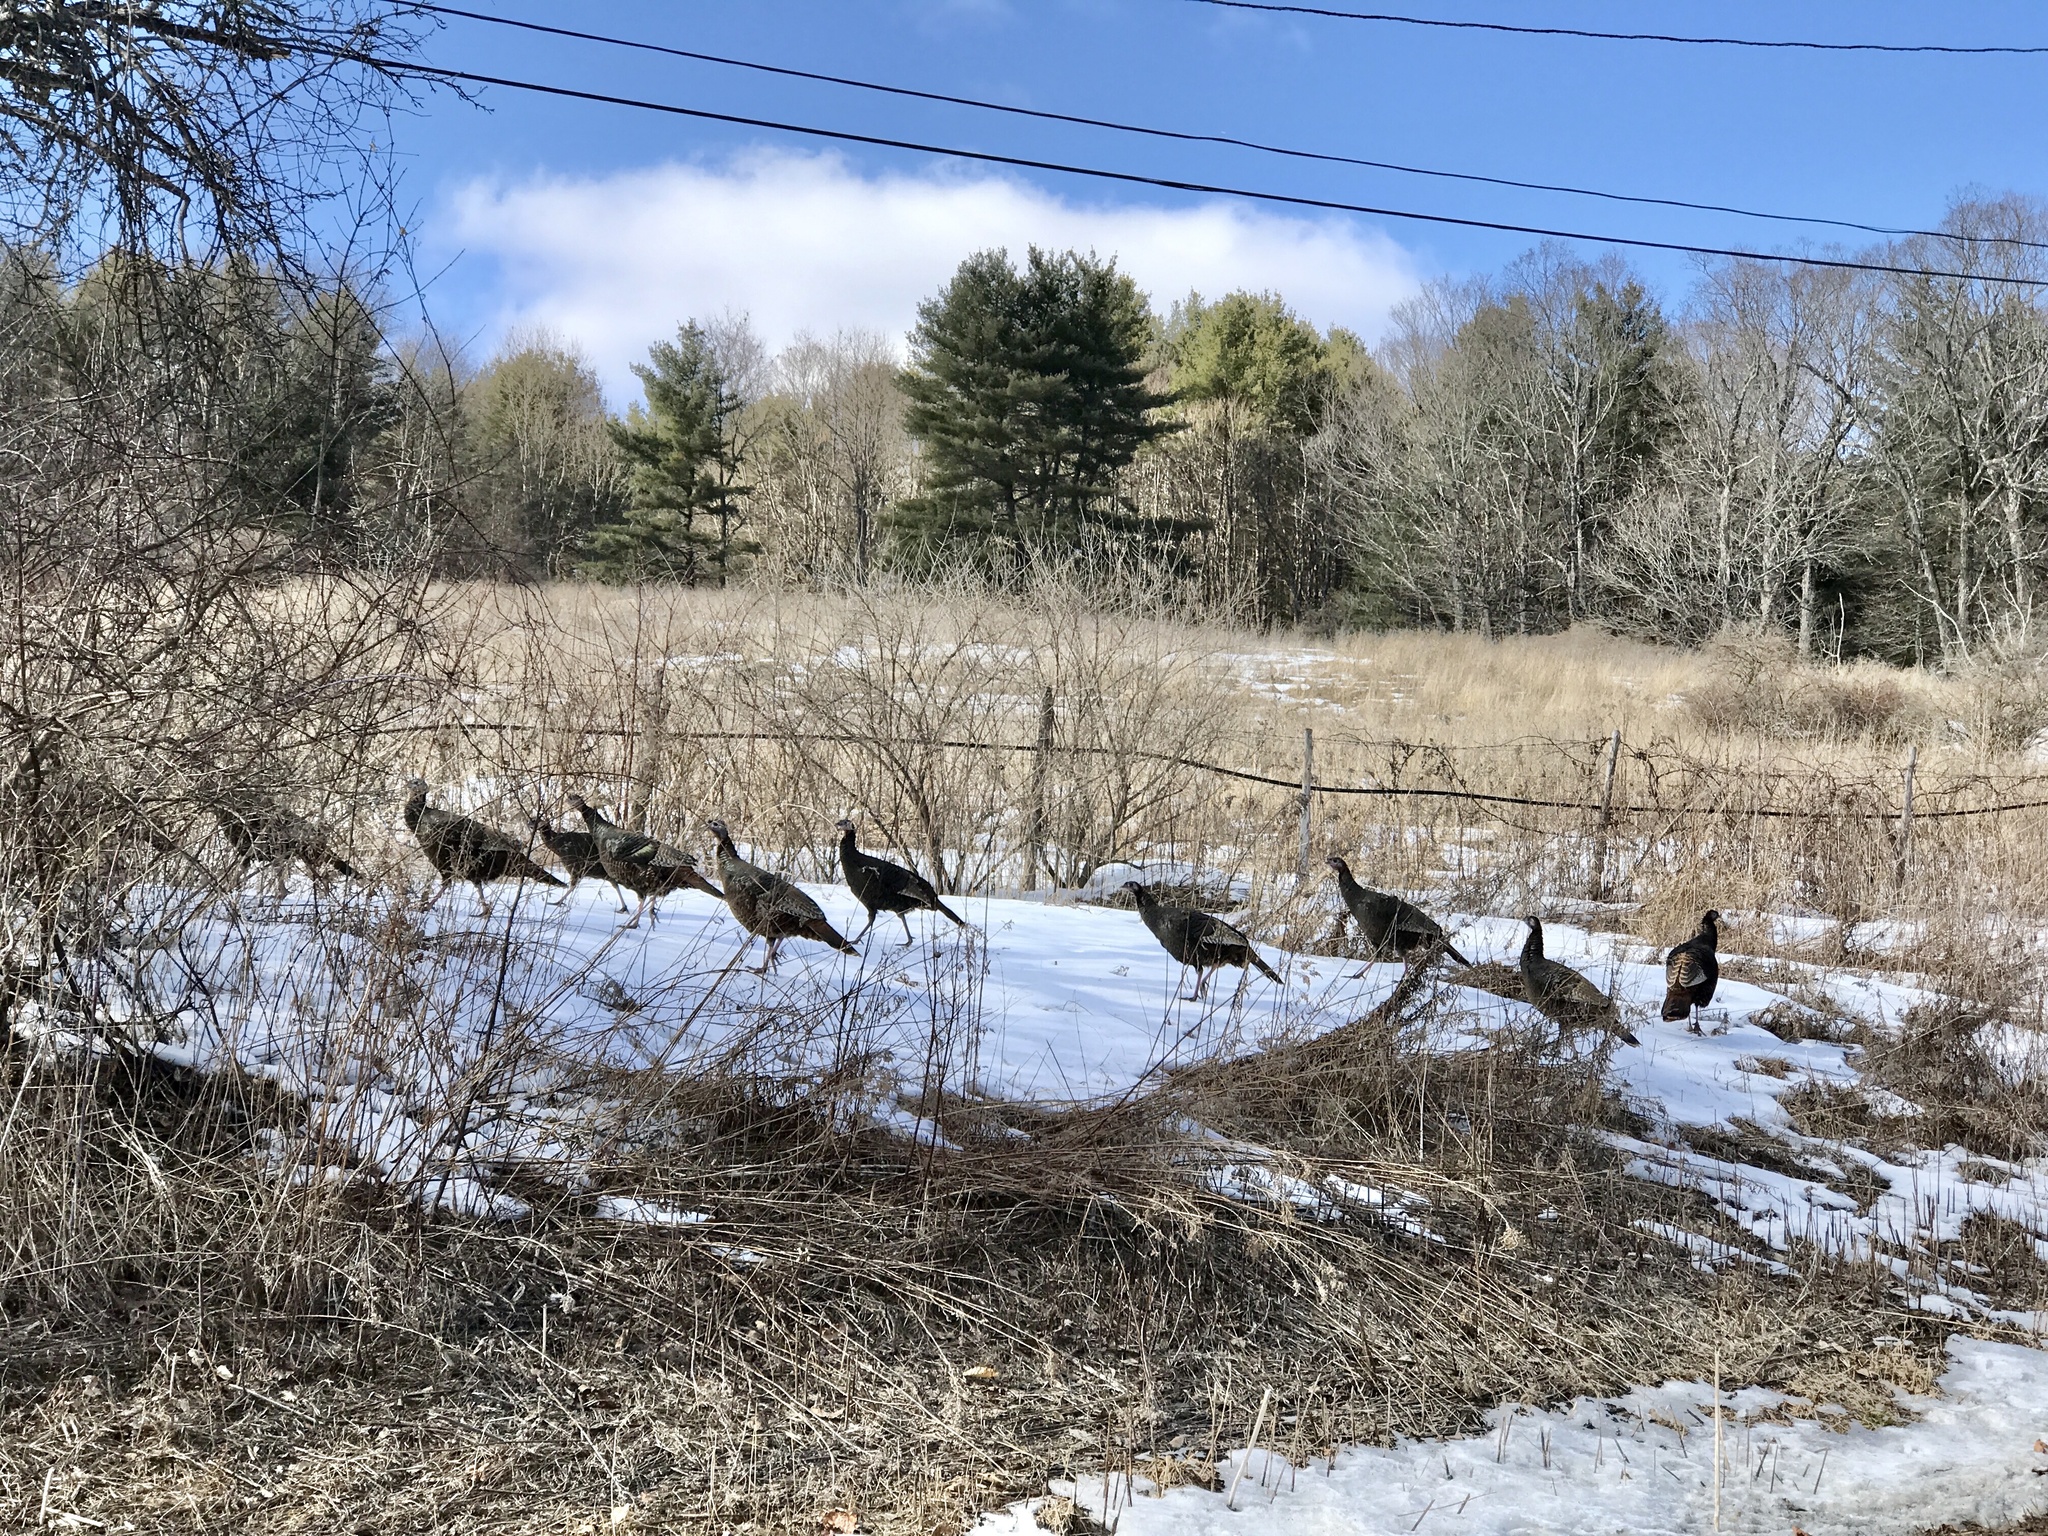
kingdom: Animalia
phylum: Chordata
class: Aves
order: Galliformes
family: Phasianidae
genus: Meleagris
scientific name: Meleagris gallopavo
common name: Wild turkey
